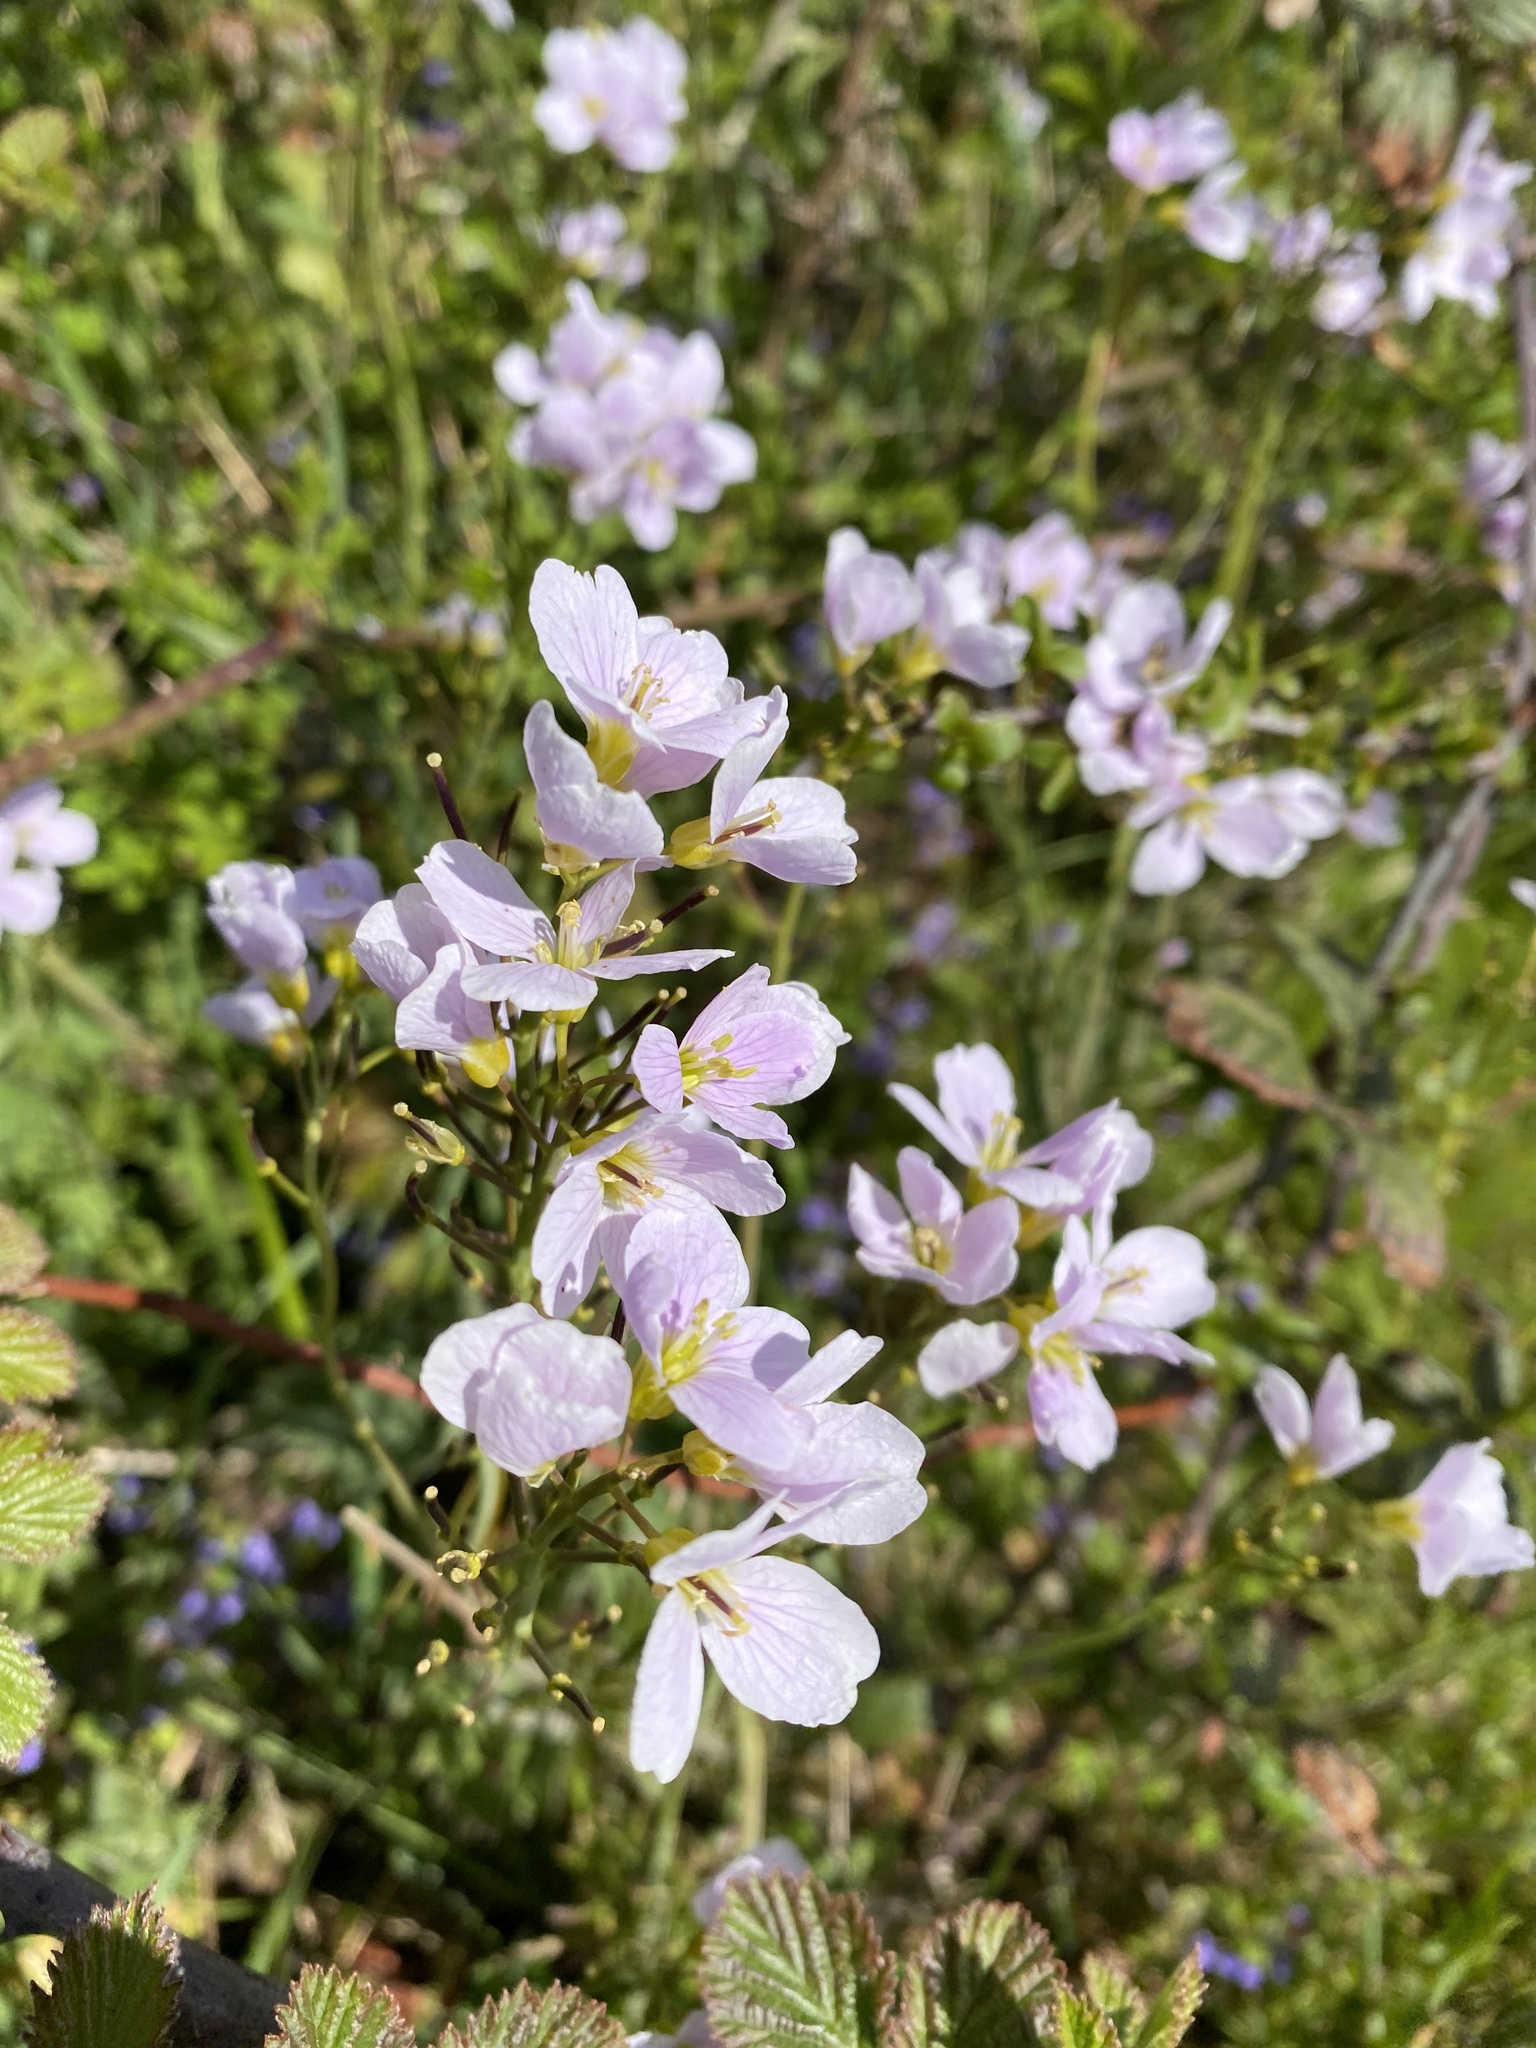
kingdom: Plantae
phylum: Tracheophyta
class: Magnoliopsida
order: Brassicales
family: Brassicaceae
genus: Cardamine
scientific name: Cardamine pratensis
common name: Cuckoo flower
